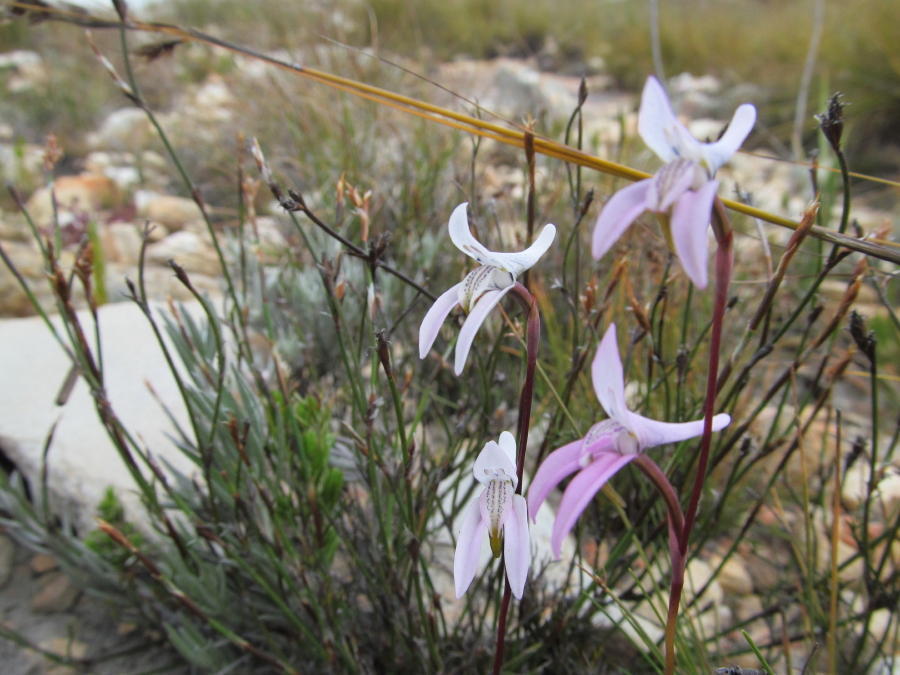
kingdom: Plantae
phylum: Tracheophyta
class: Liliopsida
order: Asparagales
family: Orchidaceae
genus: Disa
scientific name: Disa bifida
